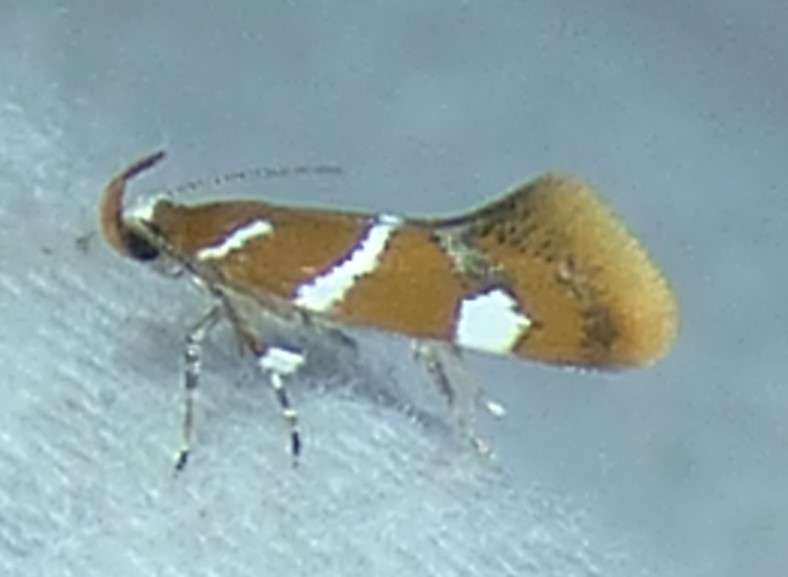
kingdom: Animalia
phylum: Arthropoda
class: Insecta
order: Lepidoptera
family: Oecophoridae
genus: Promalactis
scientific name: Promalactis suzukiella
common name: Moth
